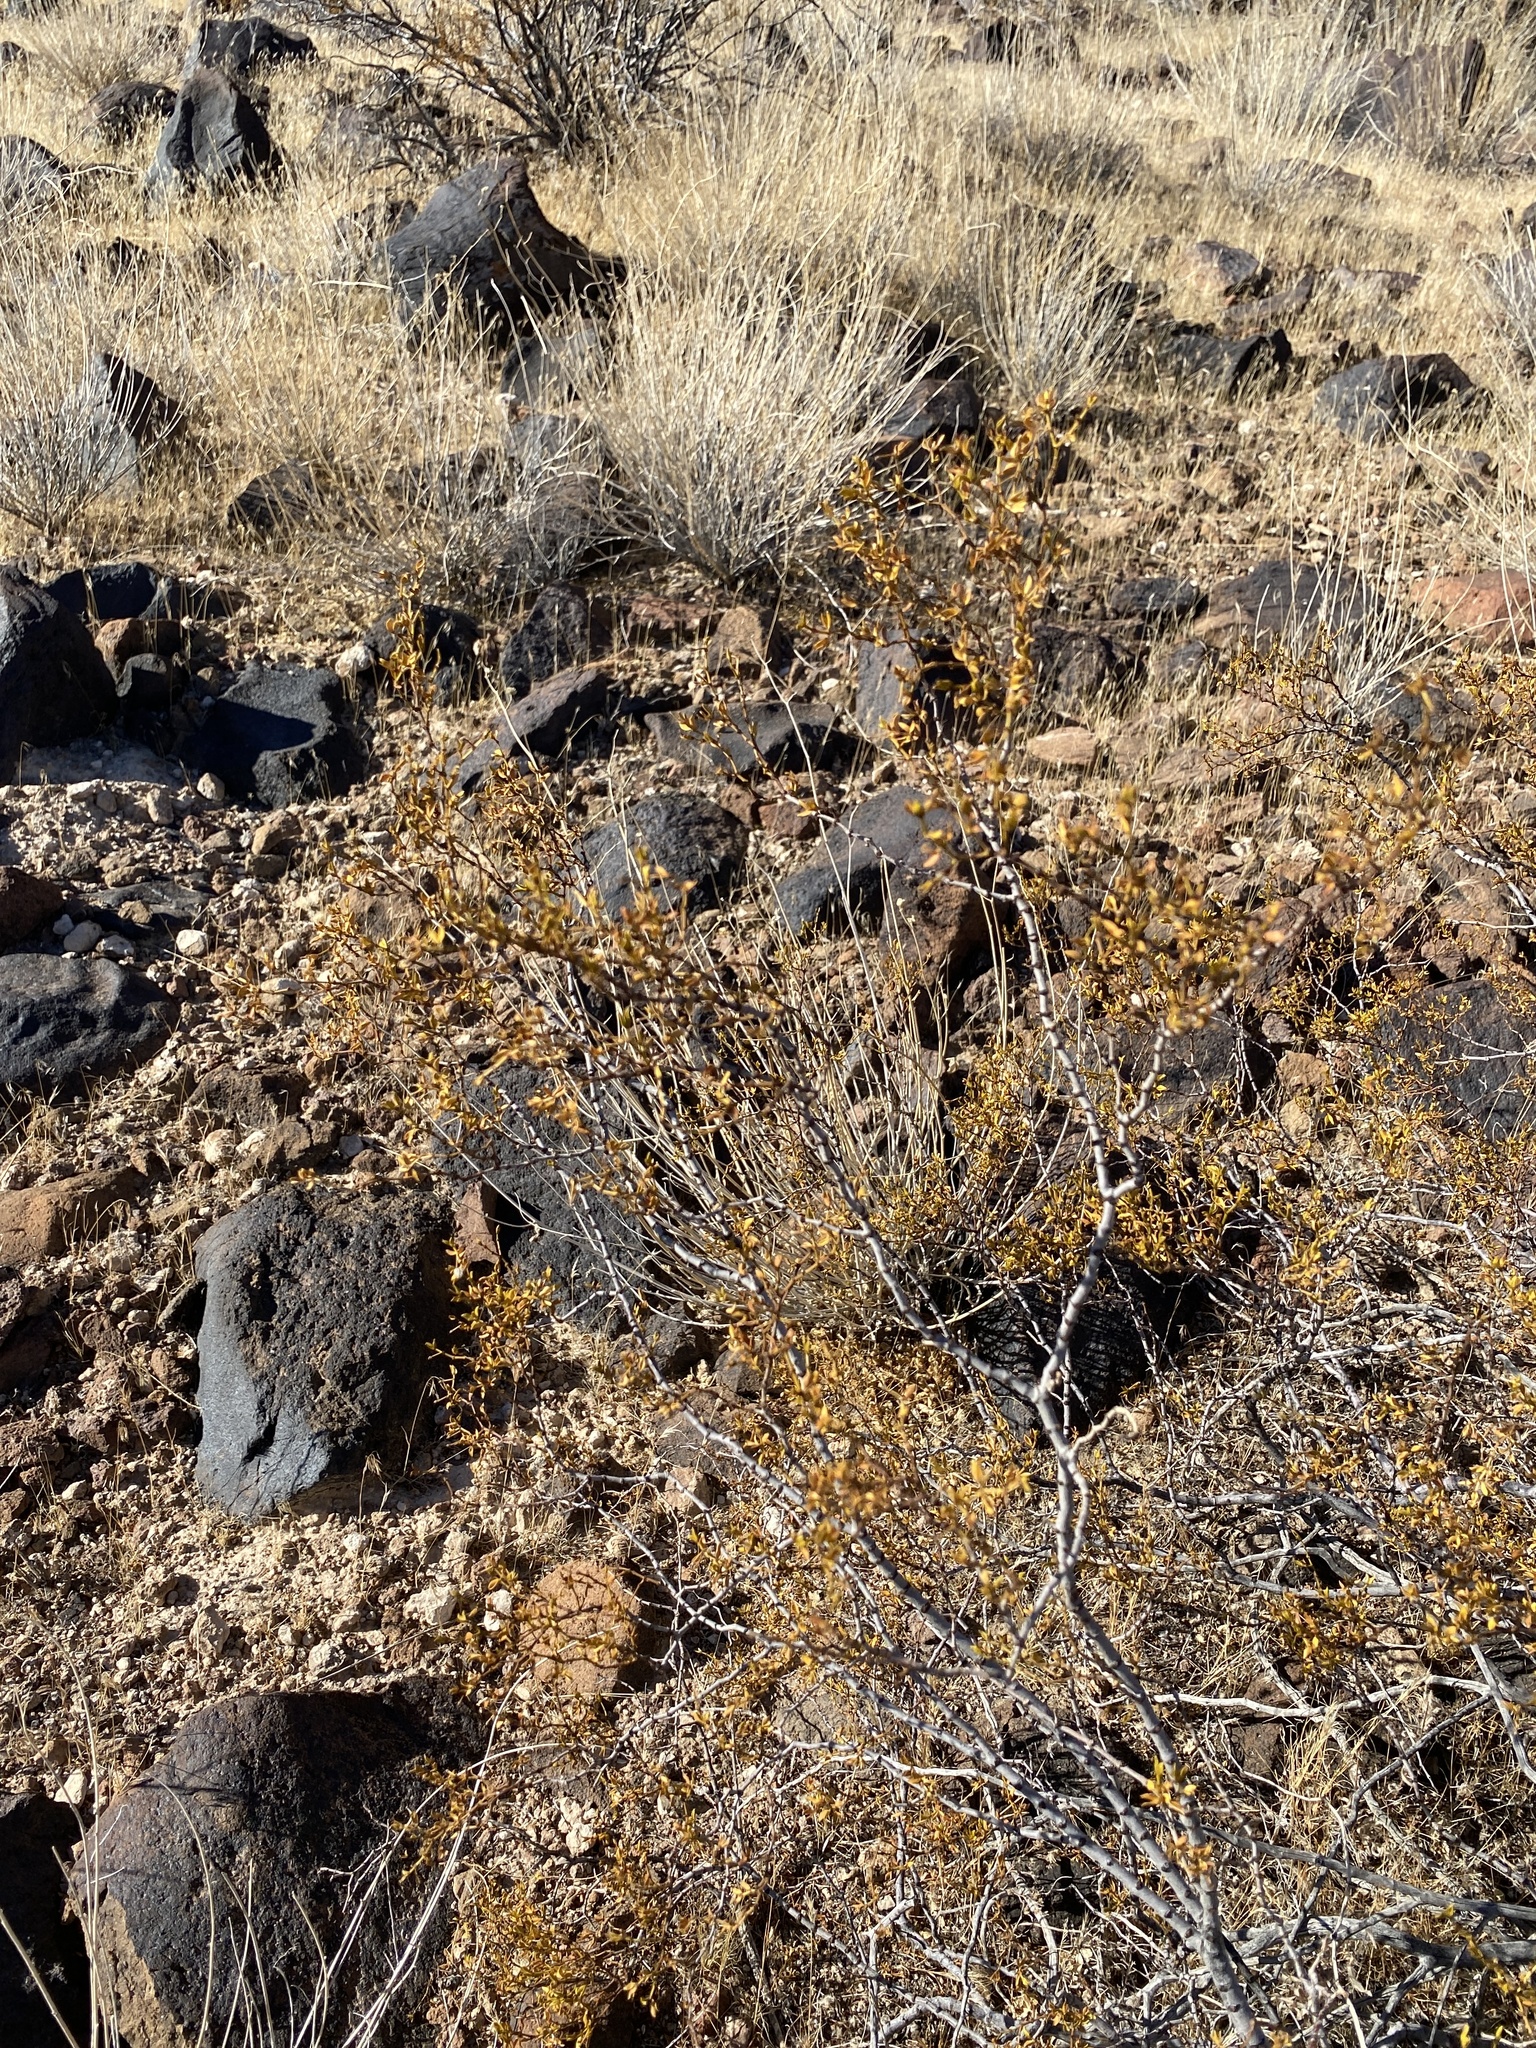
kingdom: Plantae
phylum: Tracheophyta
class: Magnoliopsida
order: Zygophyllales
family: Zygophyllaceae
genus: Larrea
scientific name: Larrea tridentata
